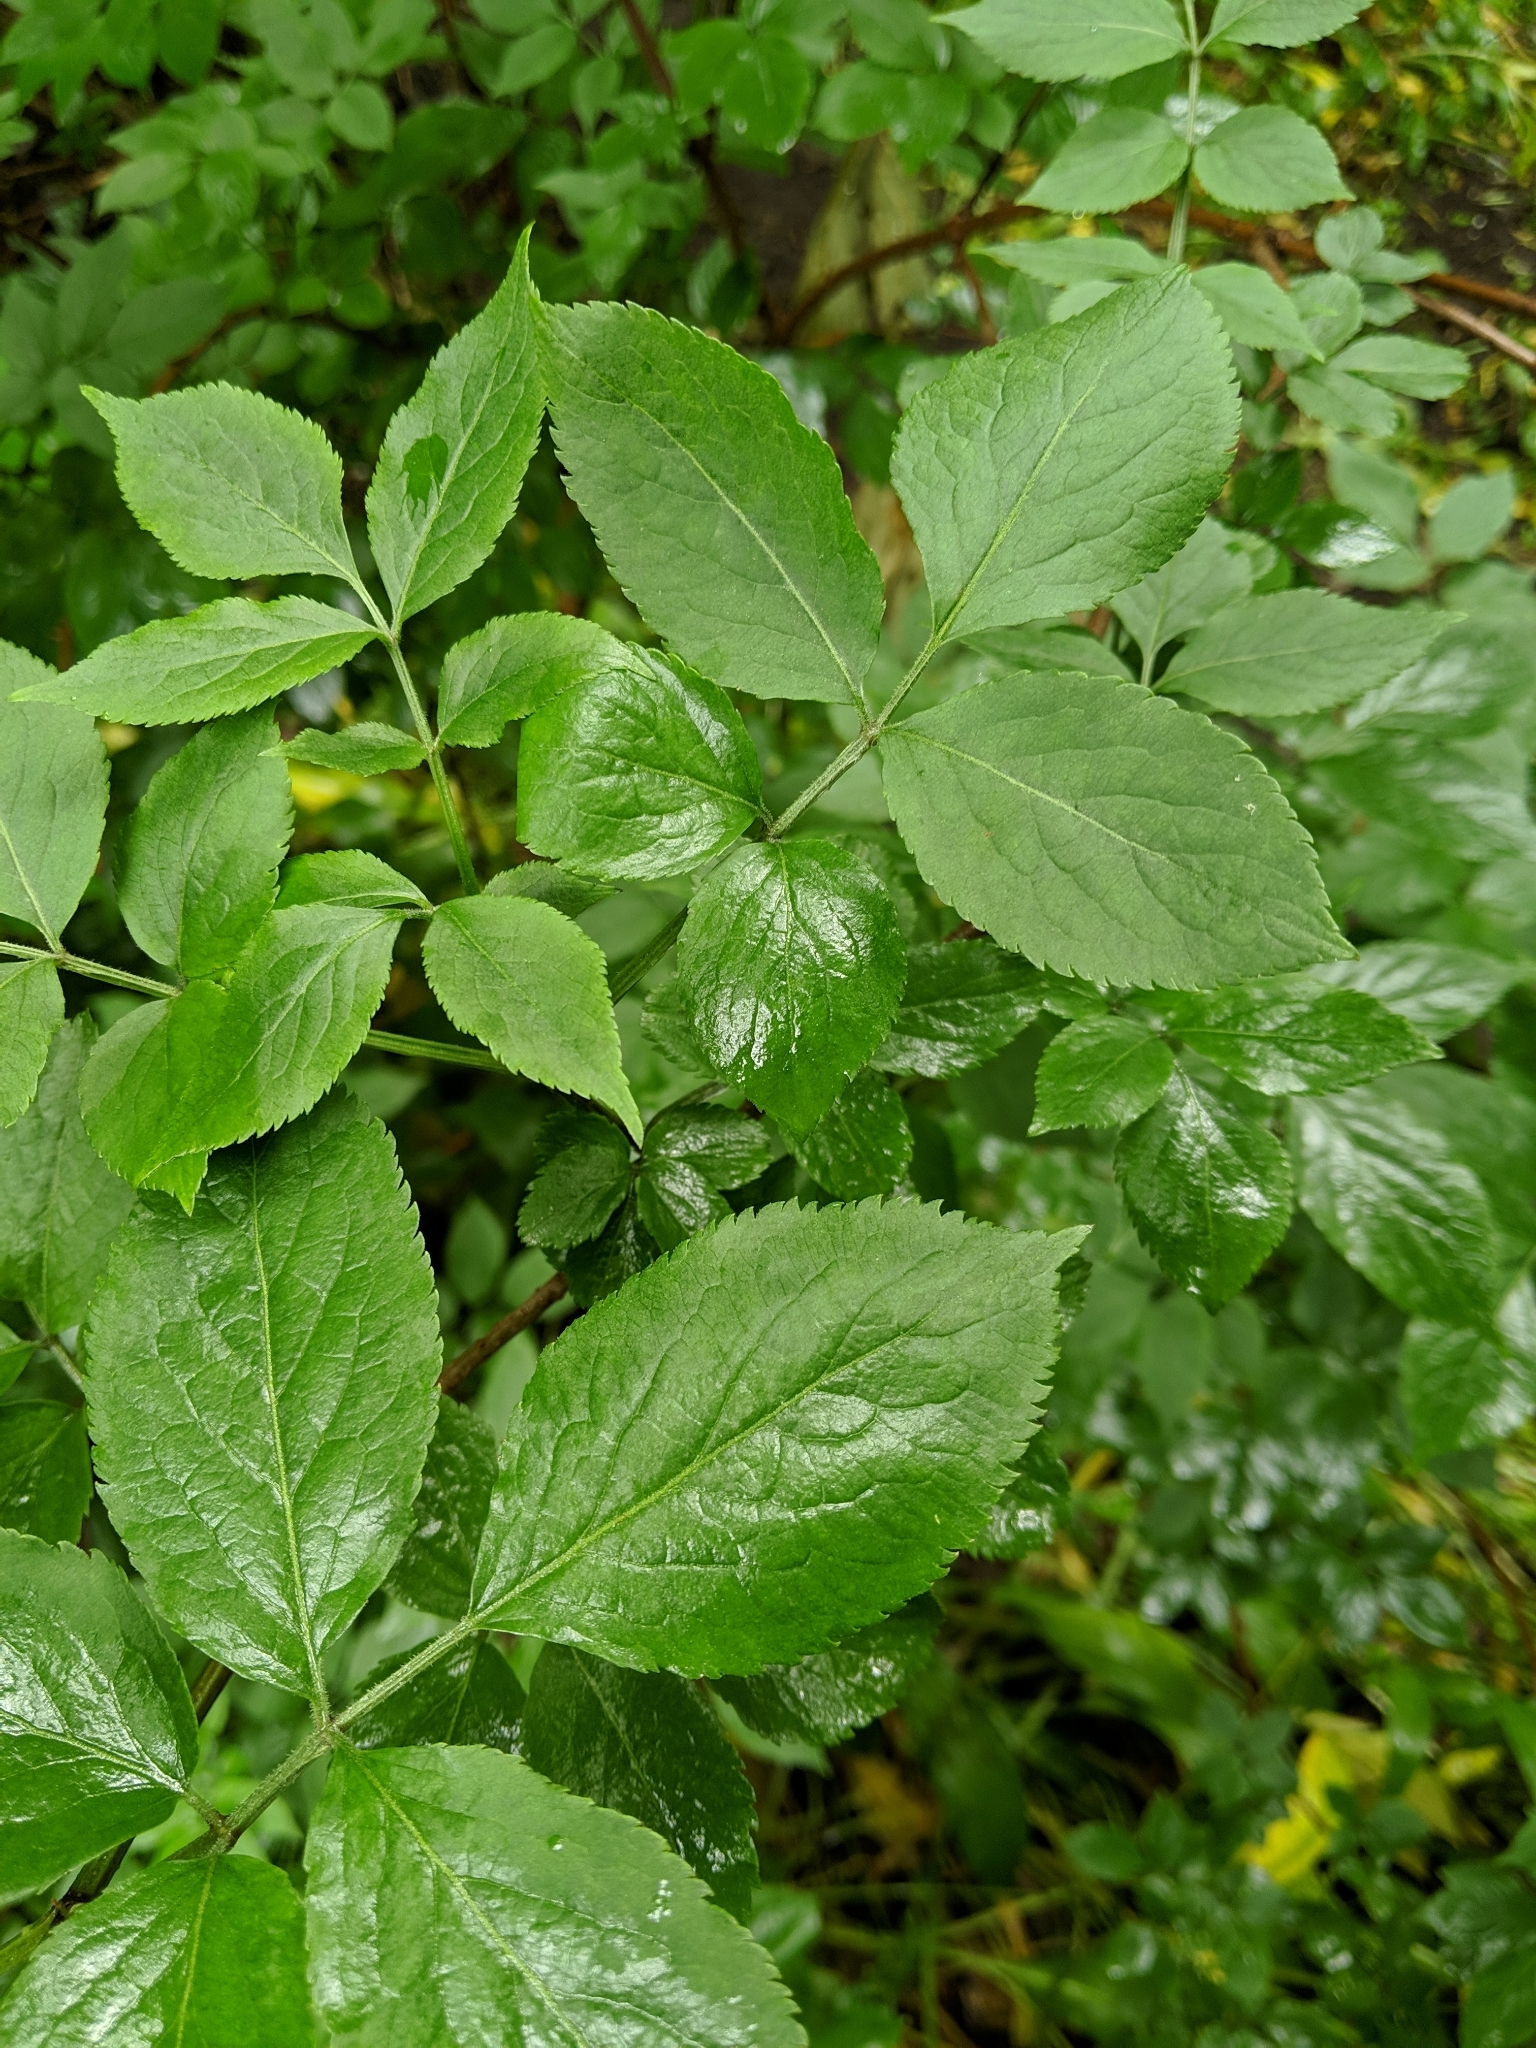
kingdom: Plantae
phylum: Tracheophyta
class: Magnoliopsida
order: Dipsacales
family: Viburnaceae
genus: Sambucus
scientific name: Sambucus nigra
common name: Elder
